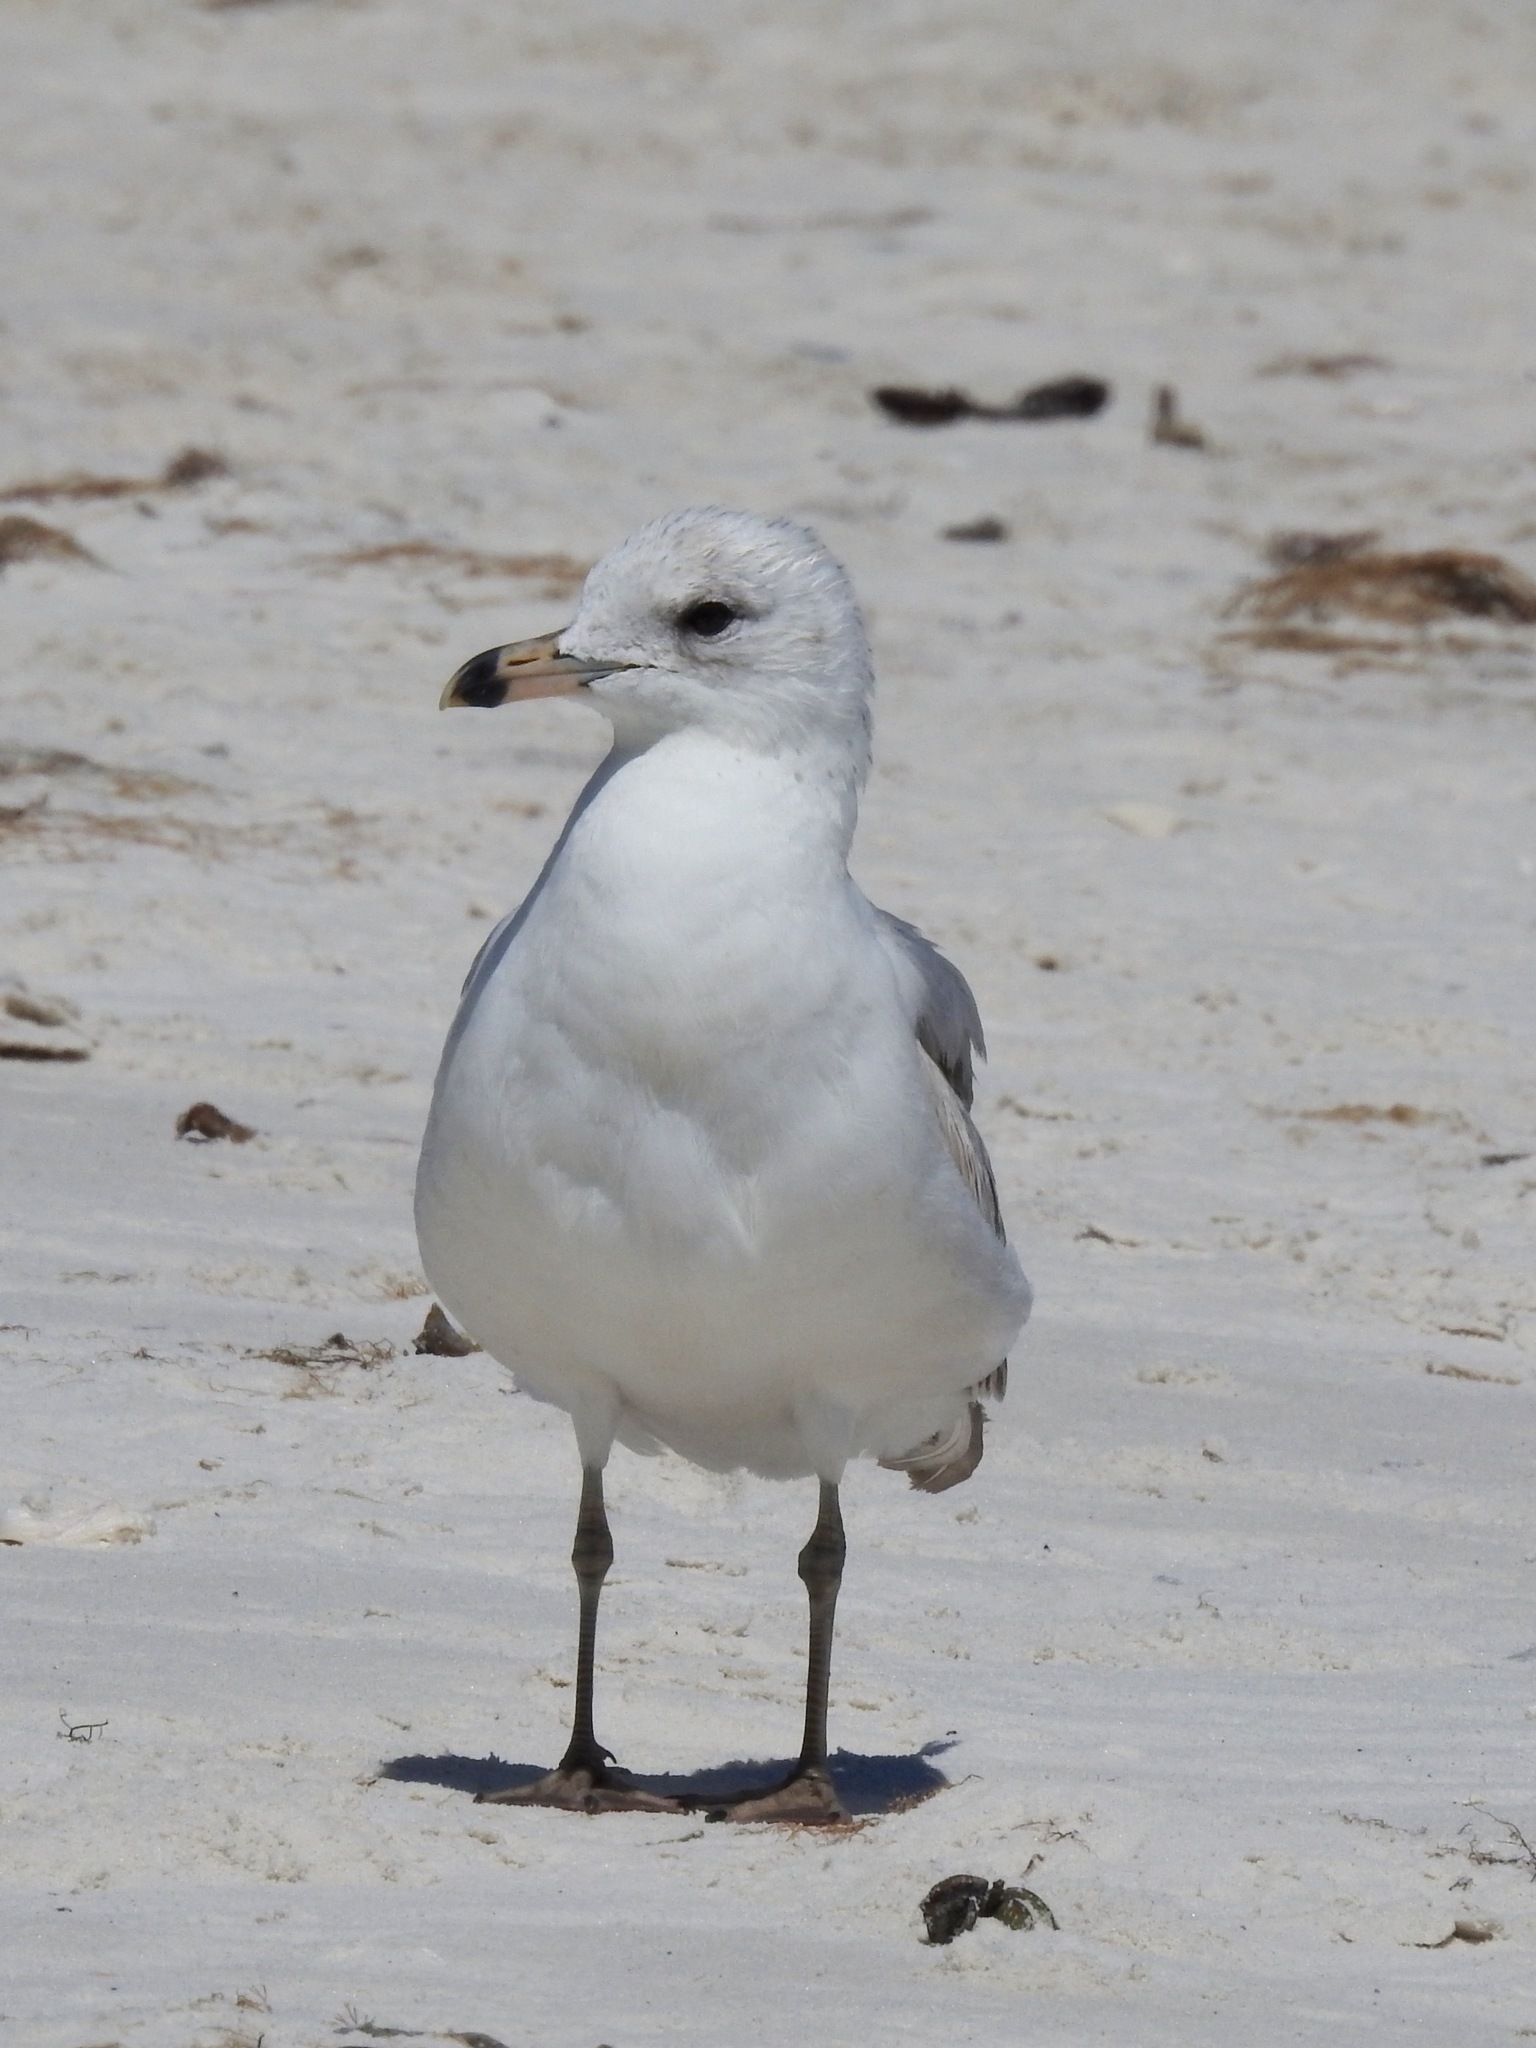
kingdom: Animalia
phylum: Chordata
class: Aves
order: Charadriiformes
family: Laridae
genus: Larus
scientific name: Larus delawarensis
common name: Ring-billed gull
